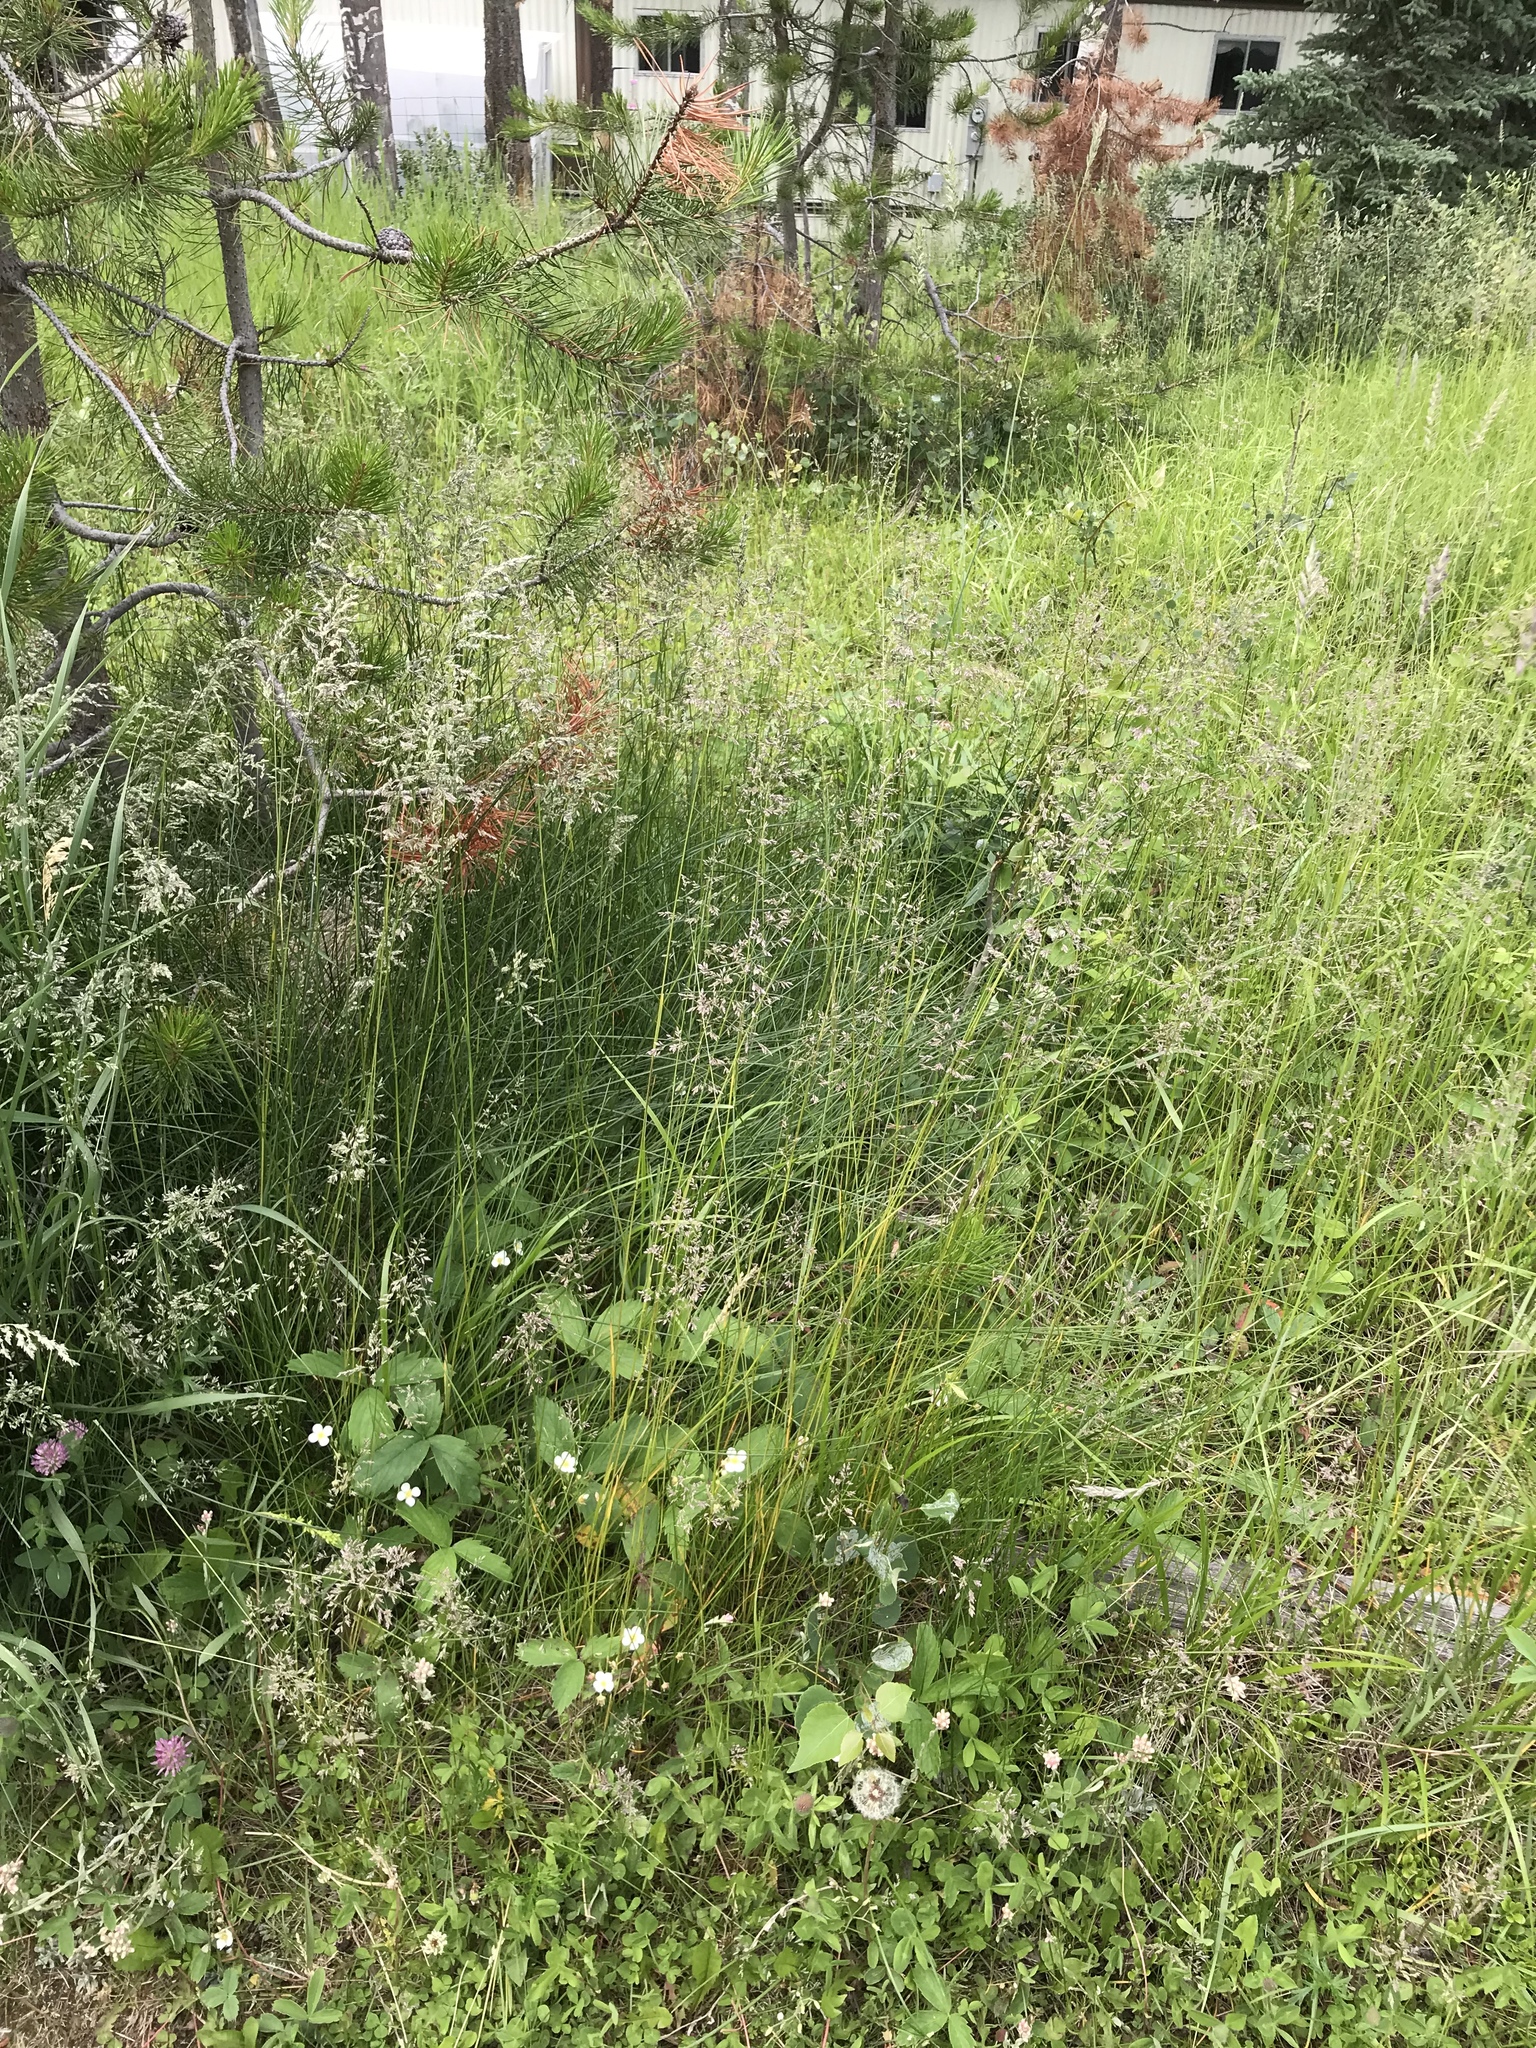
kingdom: Plantae
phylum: Tracheophyta
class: Liliopsida
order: Poales
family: Poaceae
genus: Poa
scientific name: Poa pratensis
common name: Kentucky bluegrass
